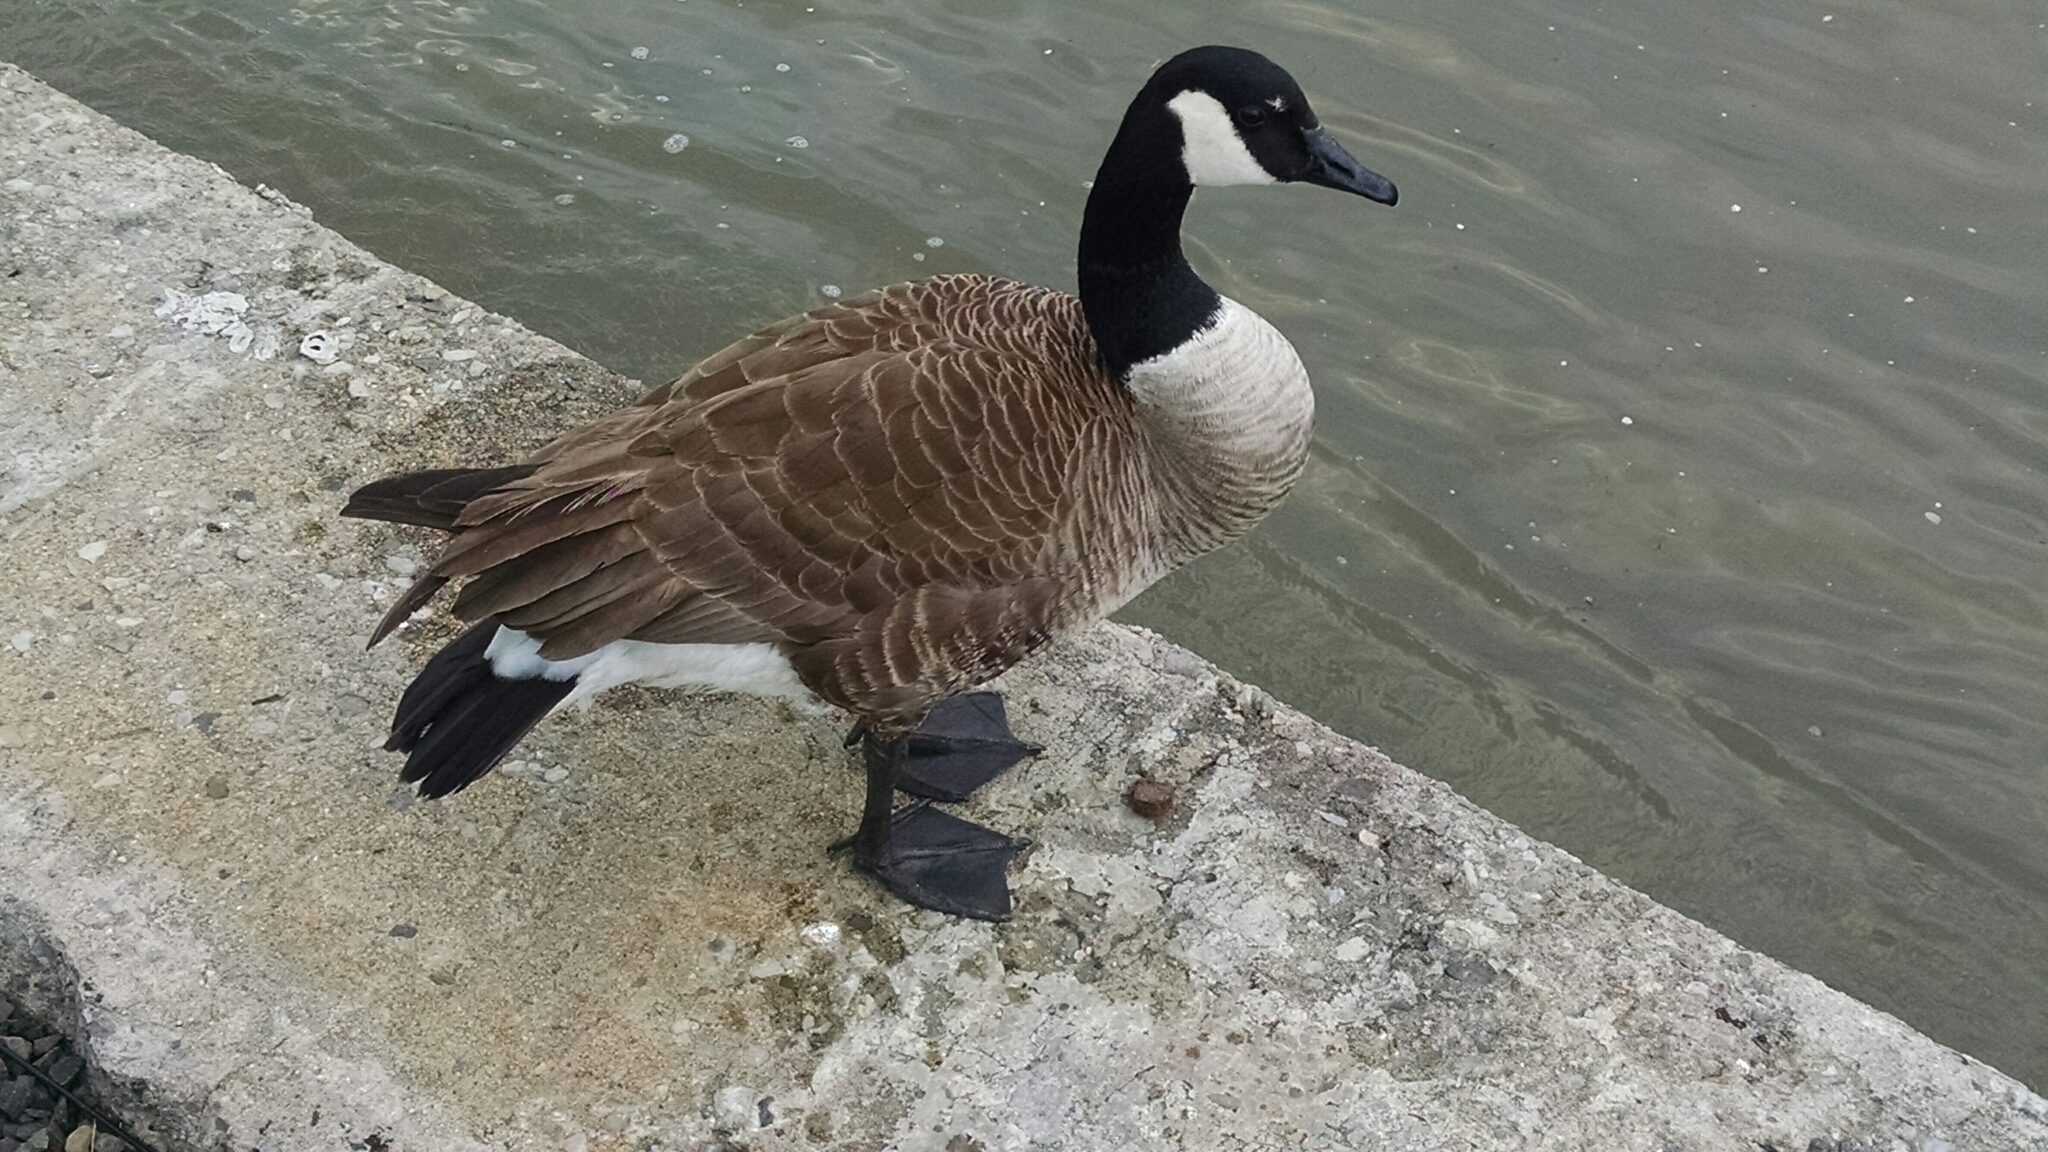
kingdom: Animalia
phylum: Chordata
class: Aves
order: Anseriformes
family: Anatidae
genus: Branta
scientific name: Branta canadensis
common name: Canada goose
